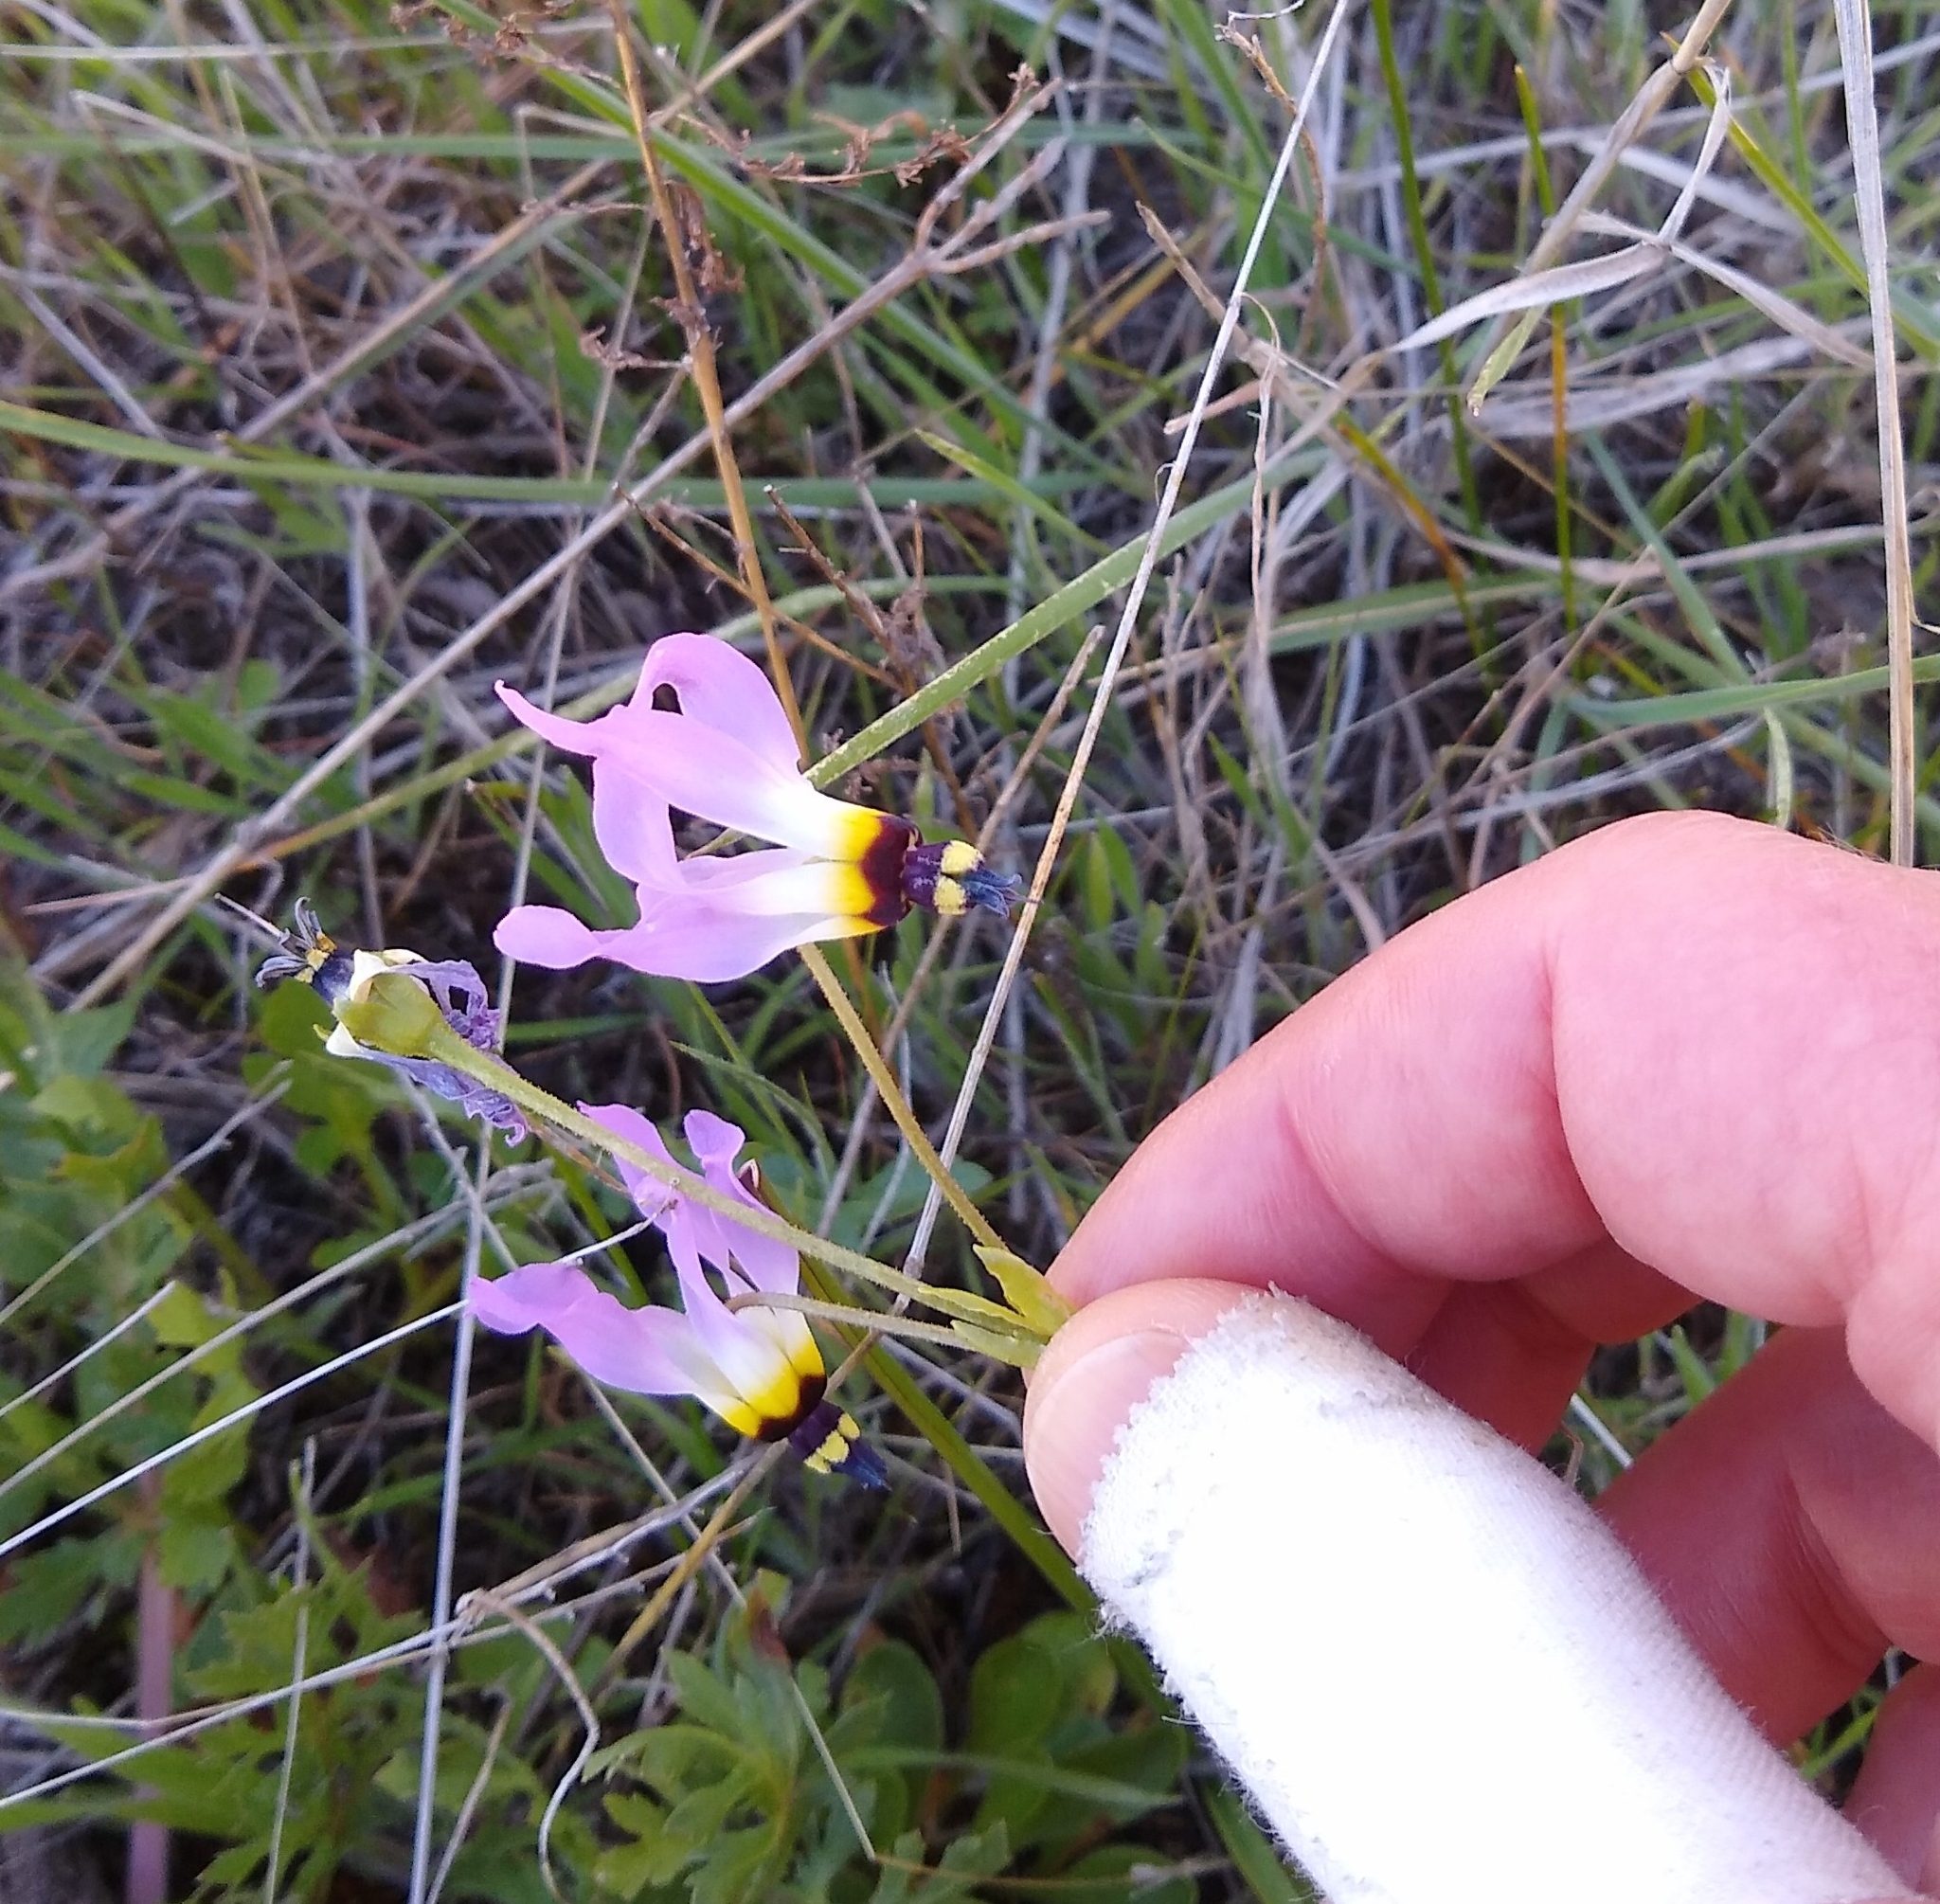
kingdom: Plantae
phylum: Tracheophyta
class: Magnoliopsida
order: Ericales
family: Primulaceae
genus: Dodecatheon
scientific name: Dodecatheon clevelandii
